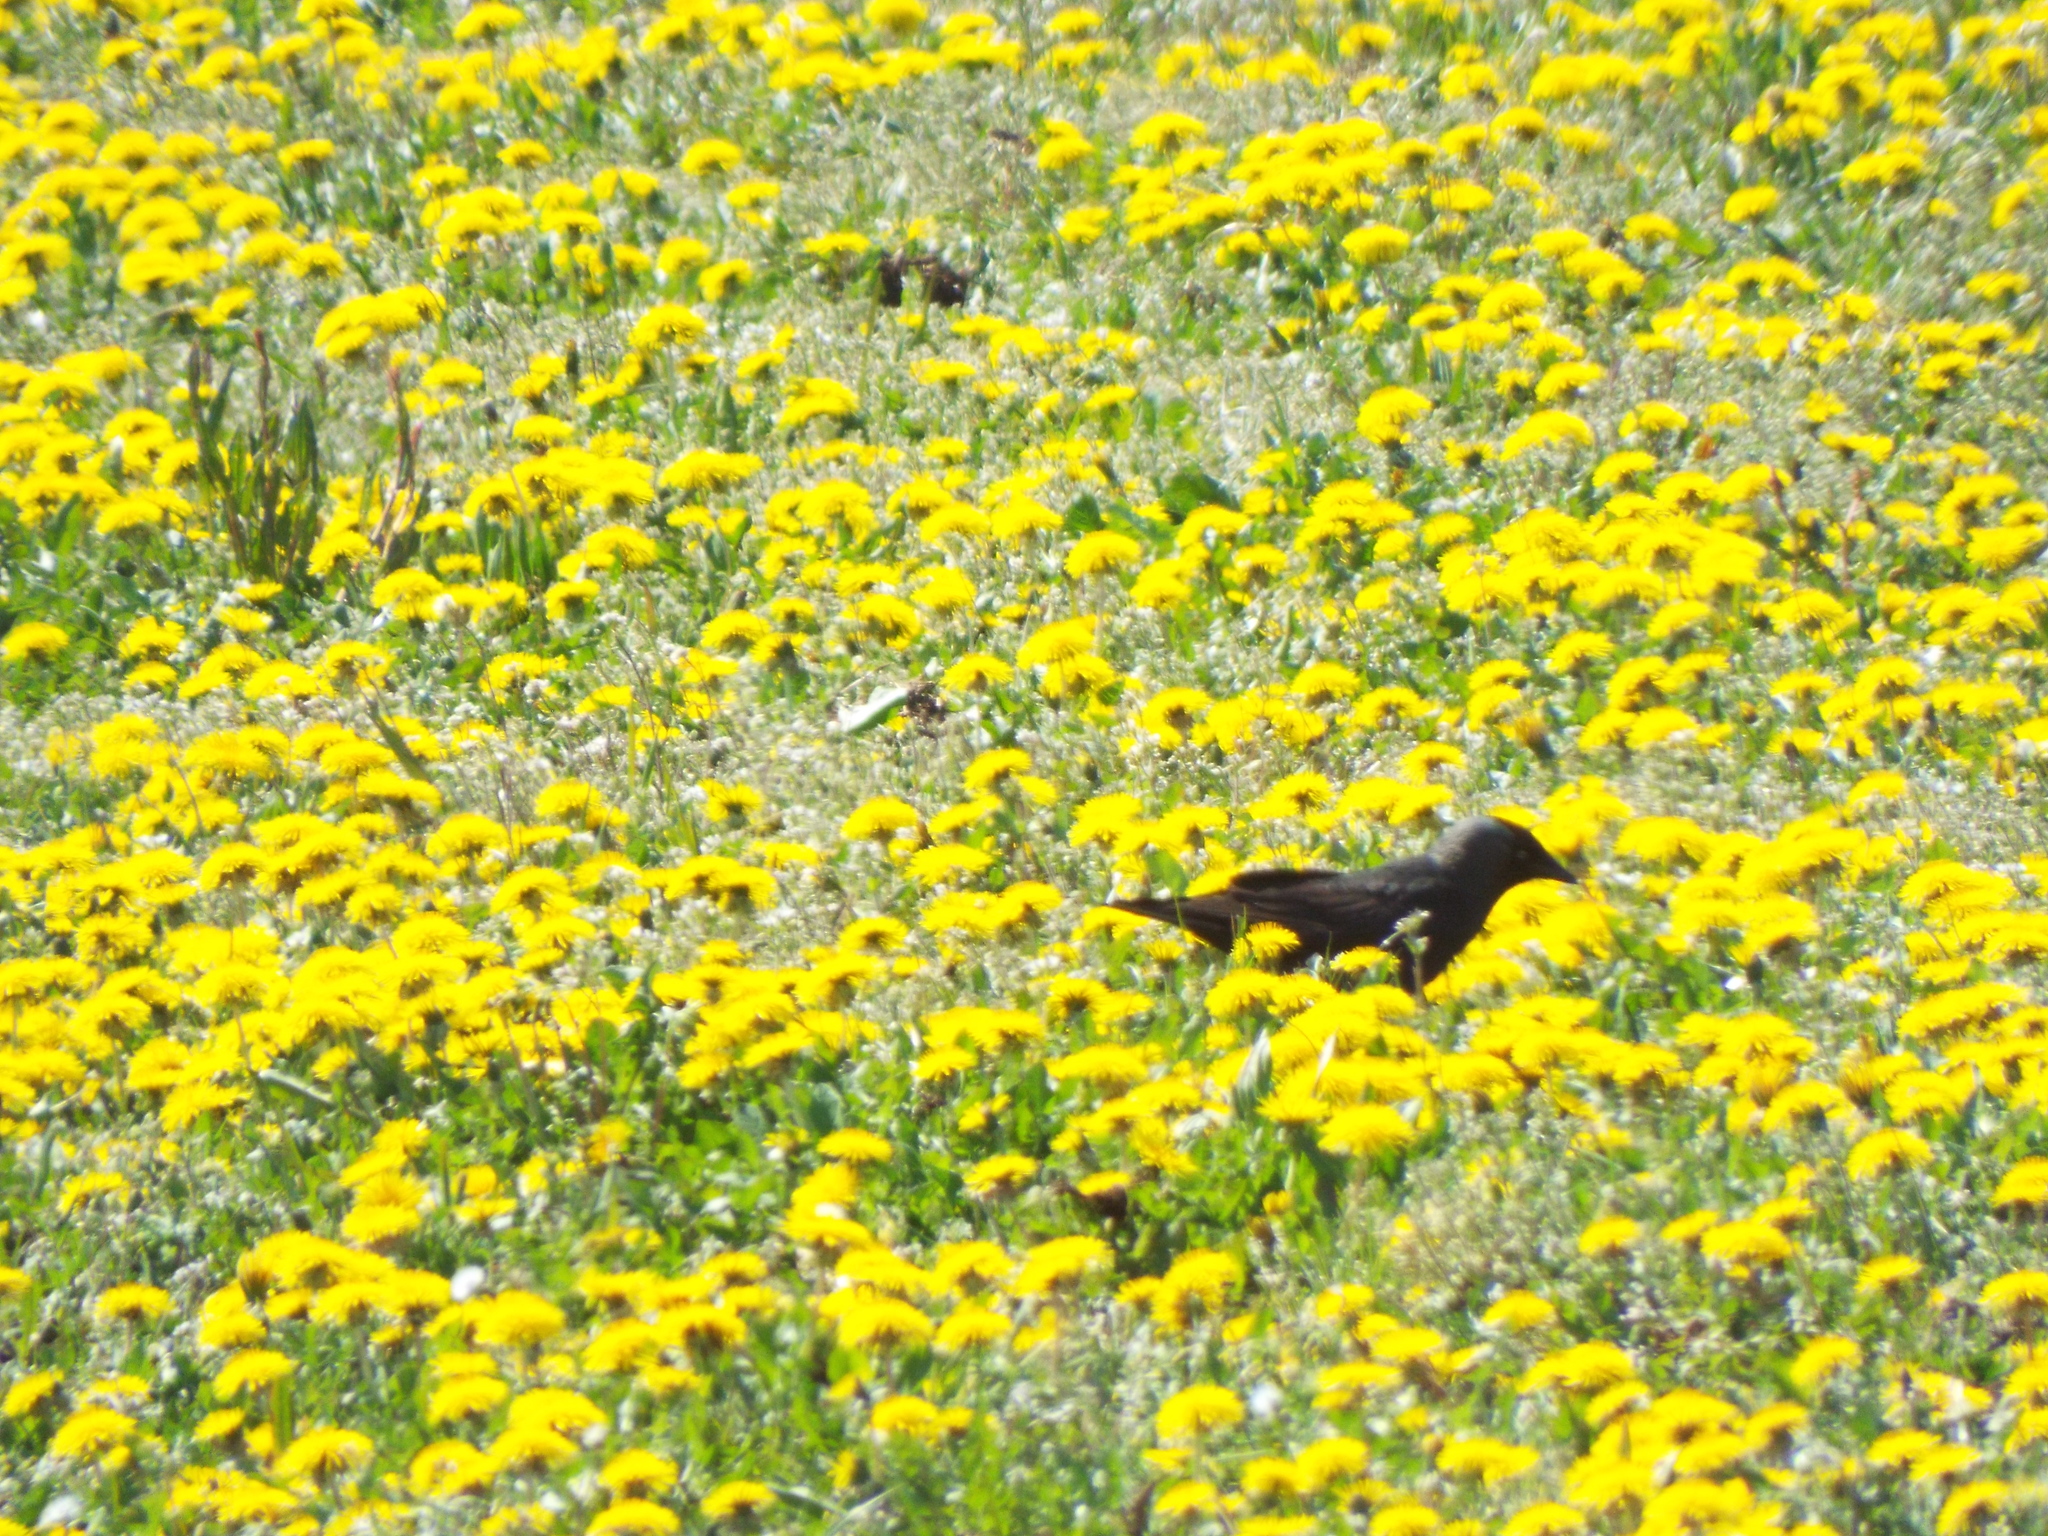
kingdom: Animalia
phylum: Chordata
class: Aves
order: Passeriformes
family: Corvidae
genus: Coloeus
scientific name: Coloeus monedula
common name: Western jackdaw
